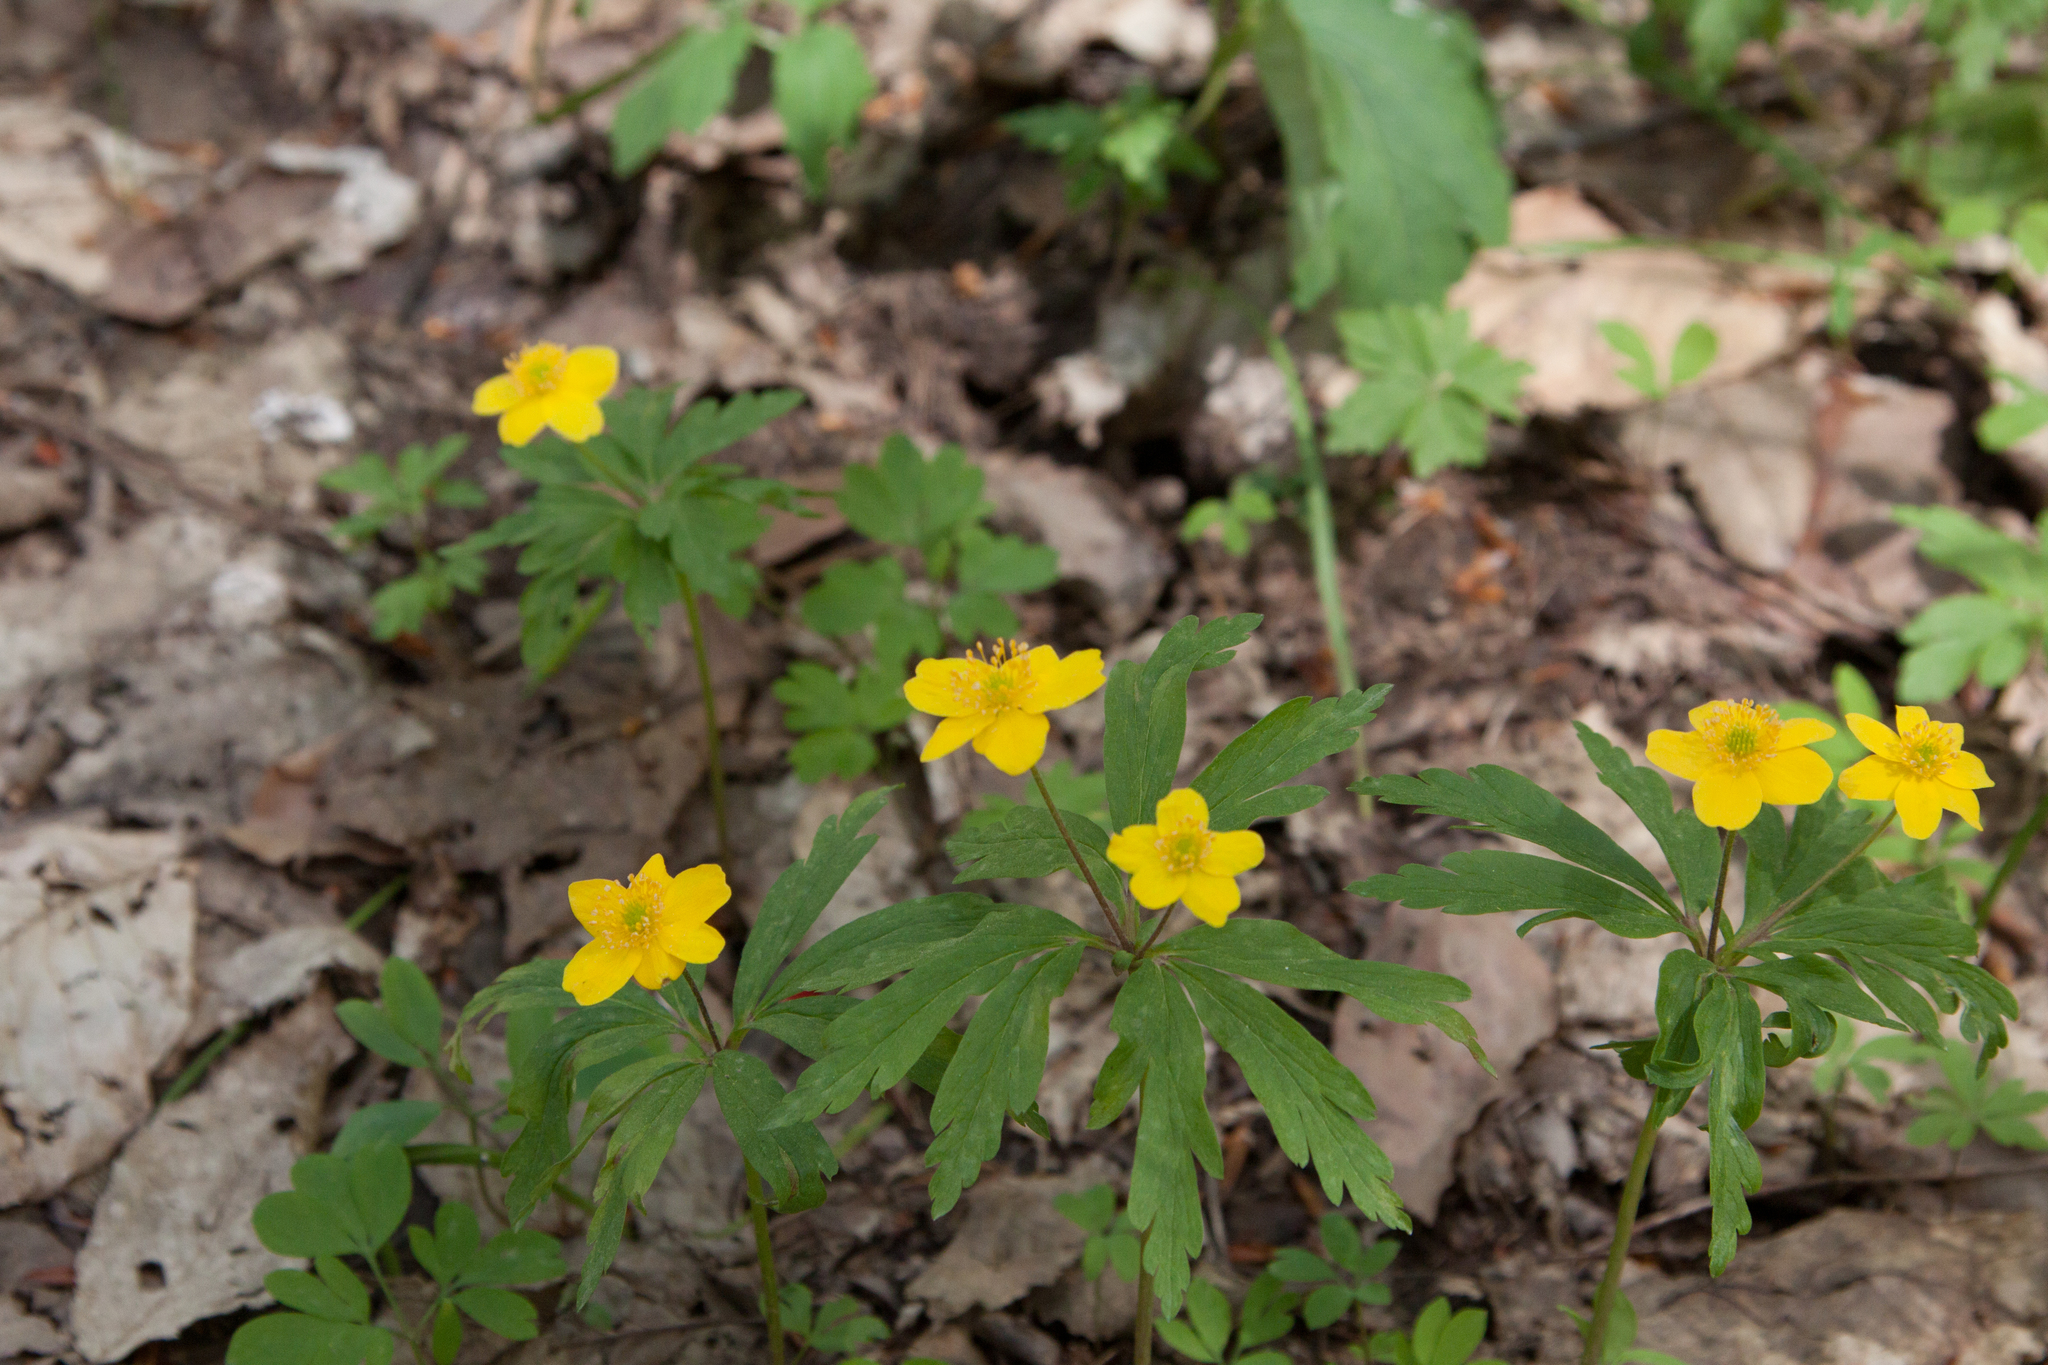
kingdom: Plantae
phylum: Tracheophyta
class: Magnoliopsida
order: Ranunculales
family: Ranunculaceae
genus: Anemone
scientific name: Anemone ranunculoides
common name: Yellow anemone
